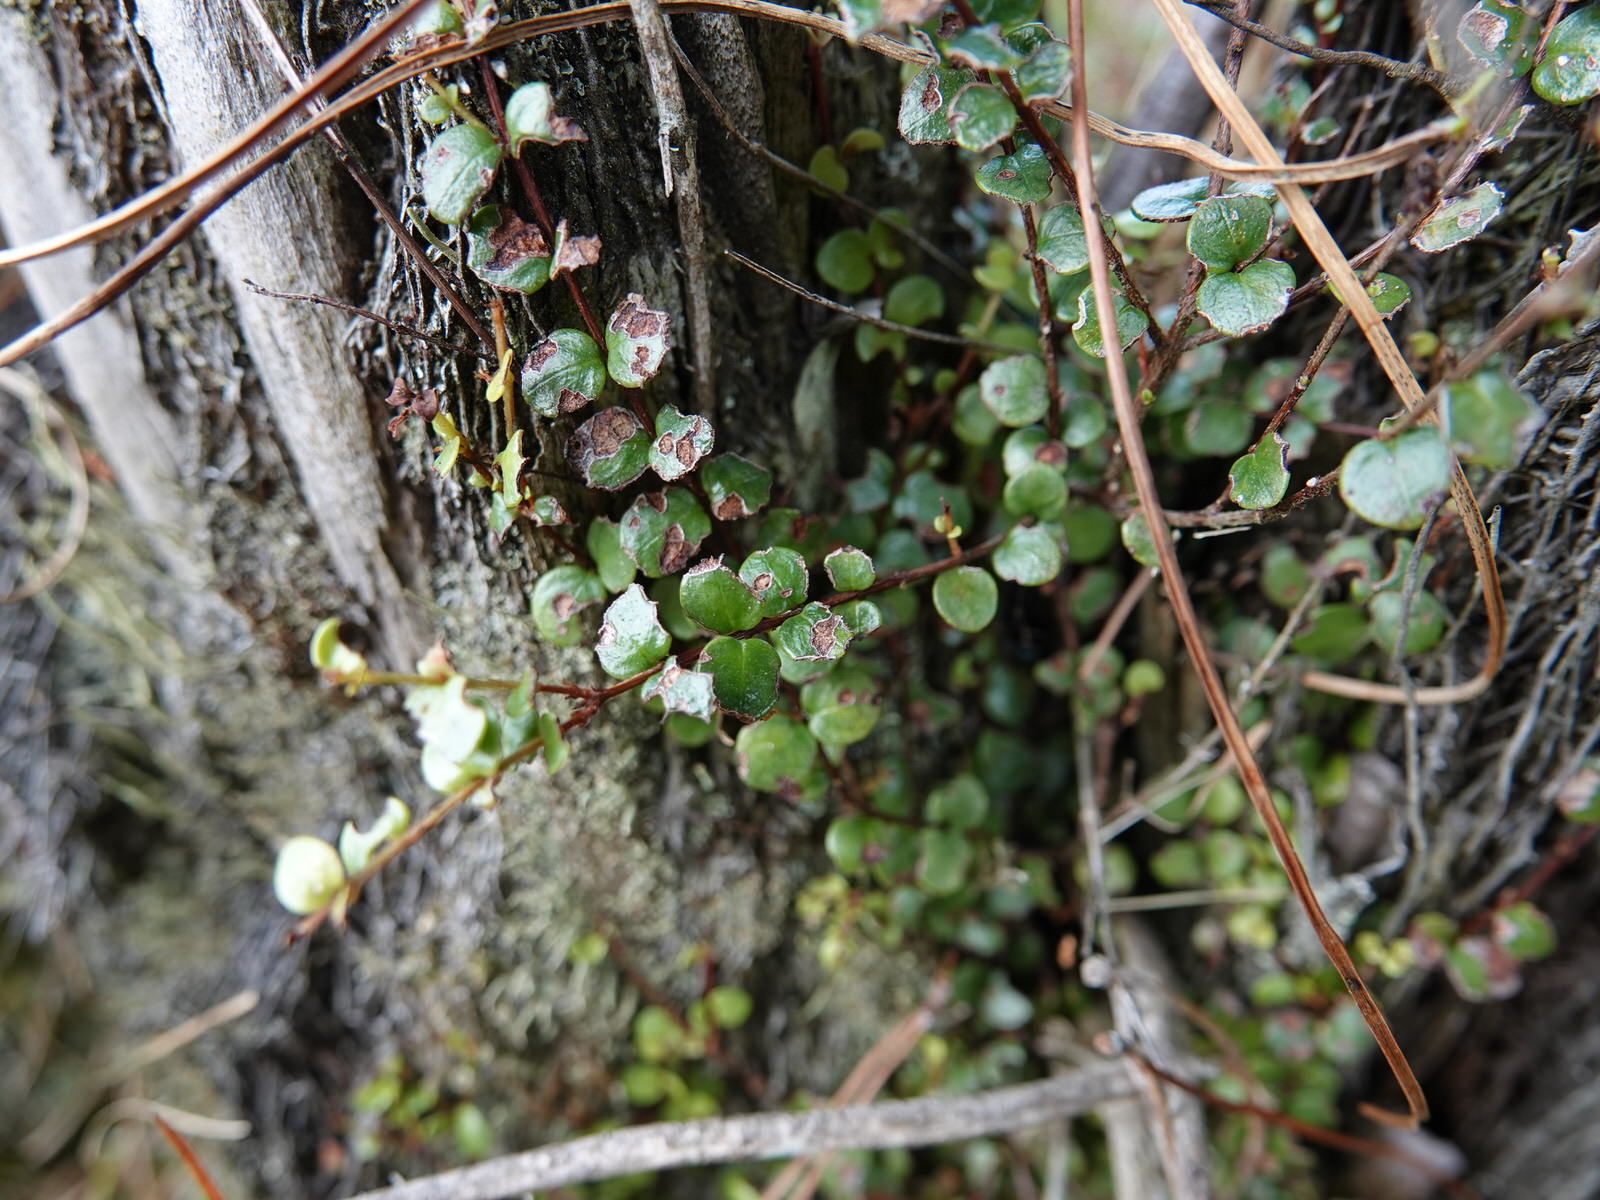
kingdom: Plantae
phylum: Tracheophyta
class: Magnoliopsida
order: Myrtales
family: Myrtaceae
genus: Metrosideros
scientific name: Metrosideros perforata
